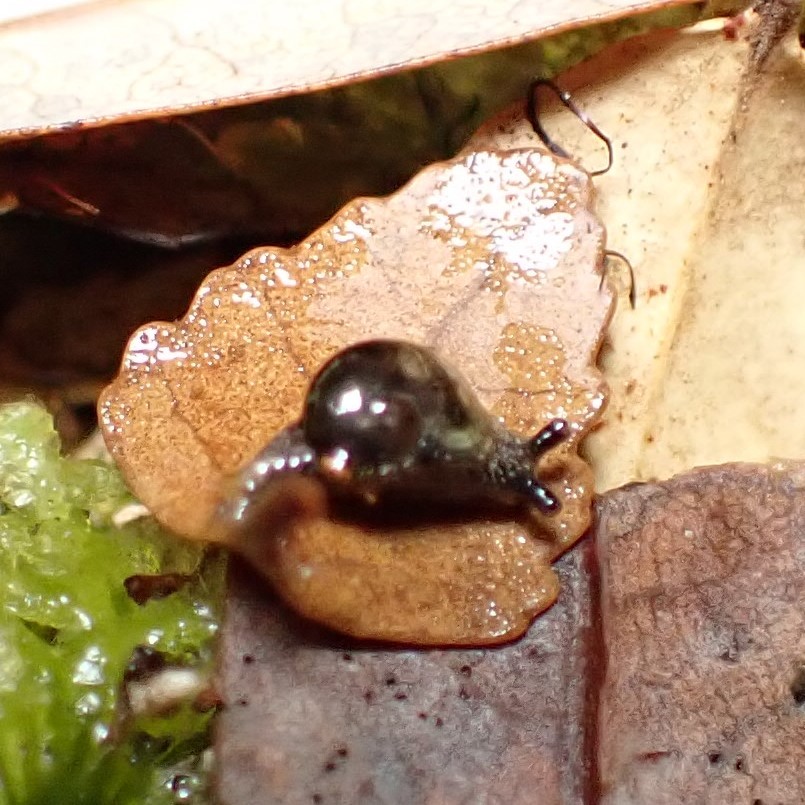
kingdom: Animalia
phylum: Mollusca
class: Gastropoda
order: Stylommatophora
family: Helicarionidae
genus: Helicarion
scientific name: Helicarion cuvieri
